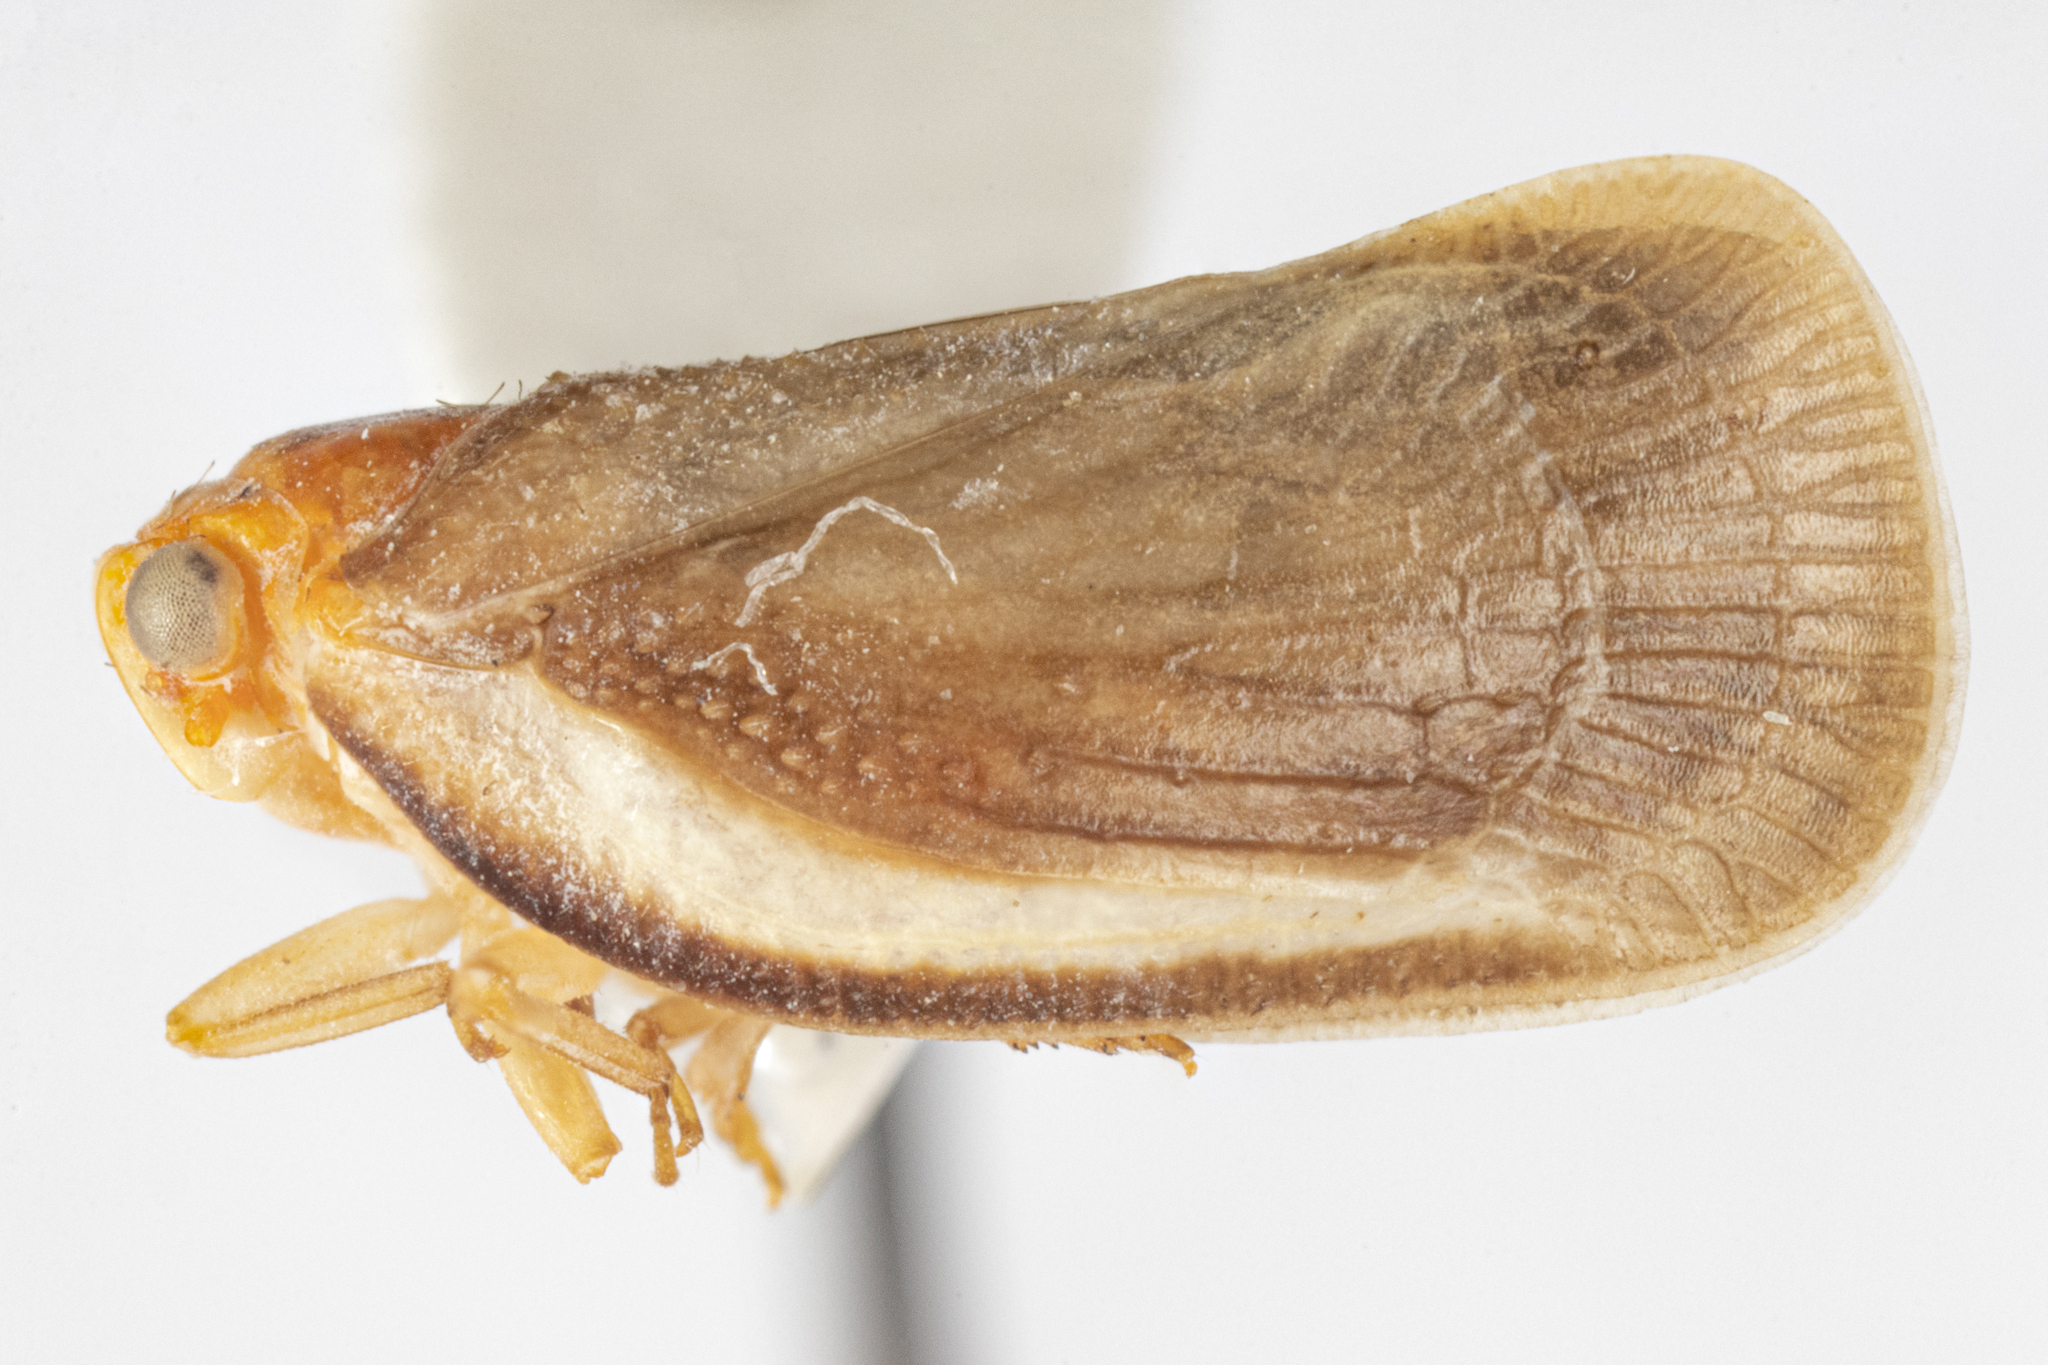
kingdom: Animalia
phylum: Arthropoda
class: Insecta
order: Hemiptera
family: Flatidae
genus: Petrusa
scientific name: Petrusa epilepsis
